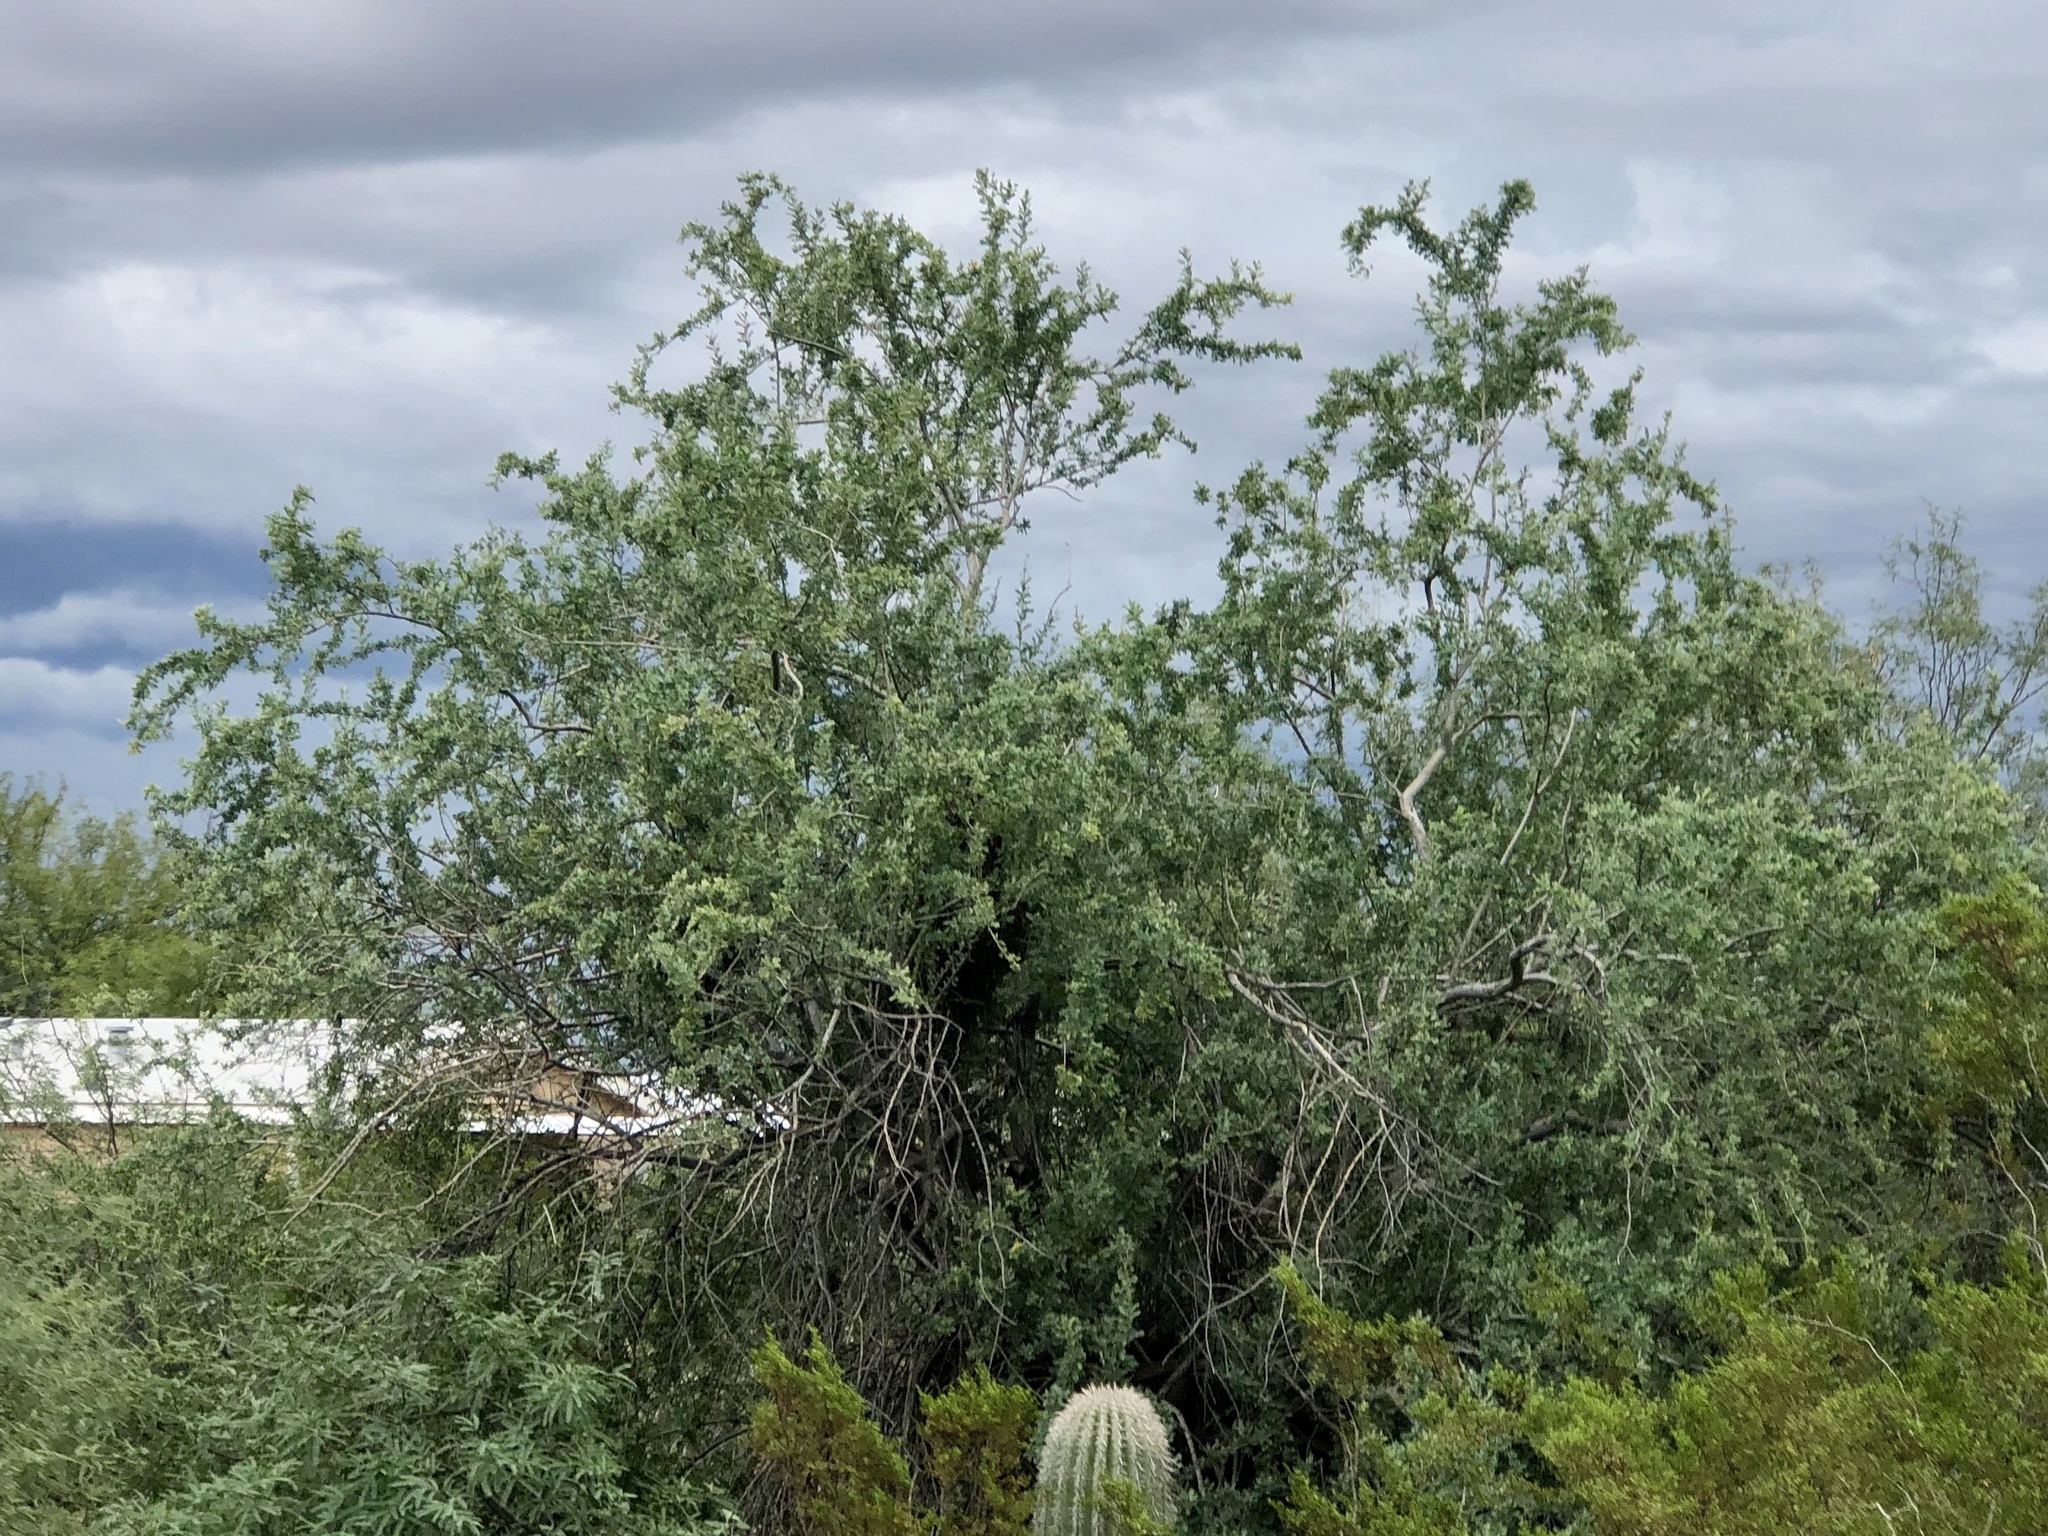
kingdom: Plantae
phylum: Tracheophyta
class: Magnoliopsida
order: Fabales
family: Fabaceae
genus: Olneya
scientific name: Olneya tesota
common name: Desert ironwood
